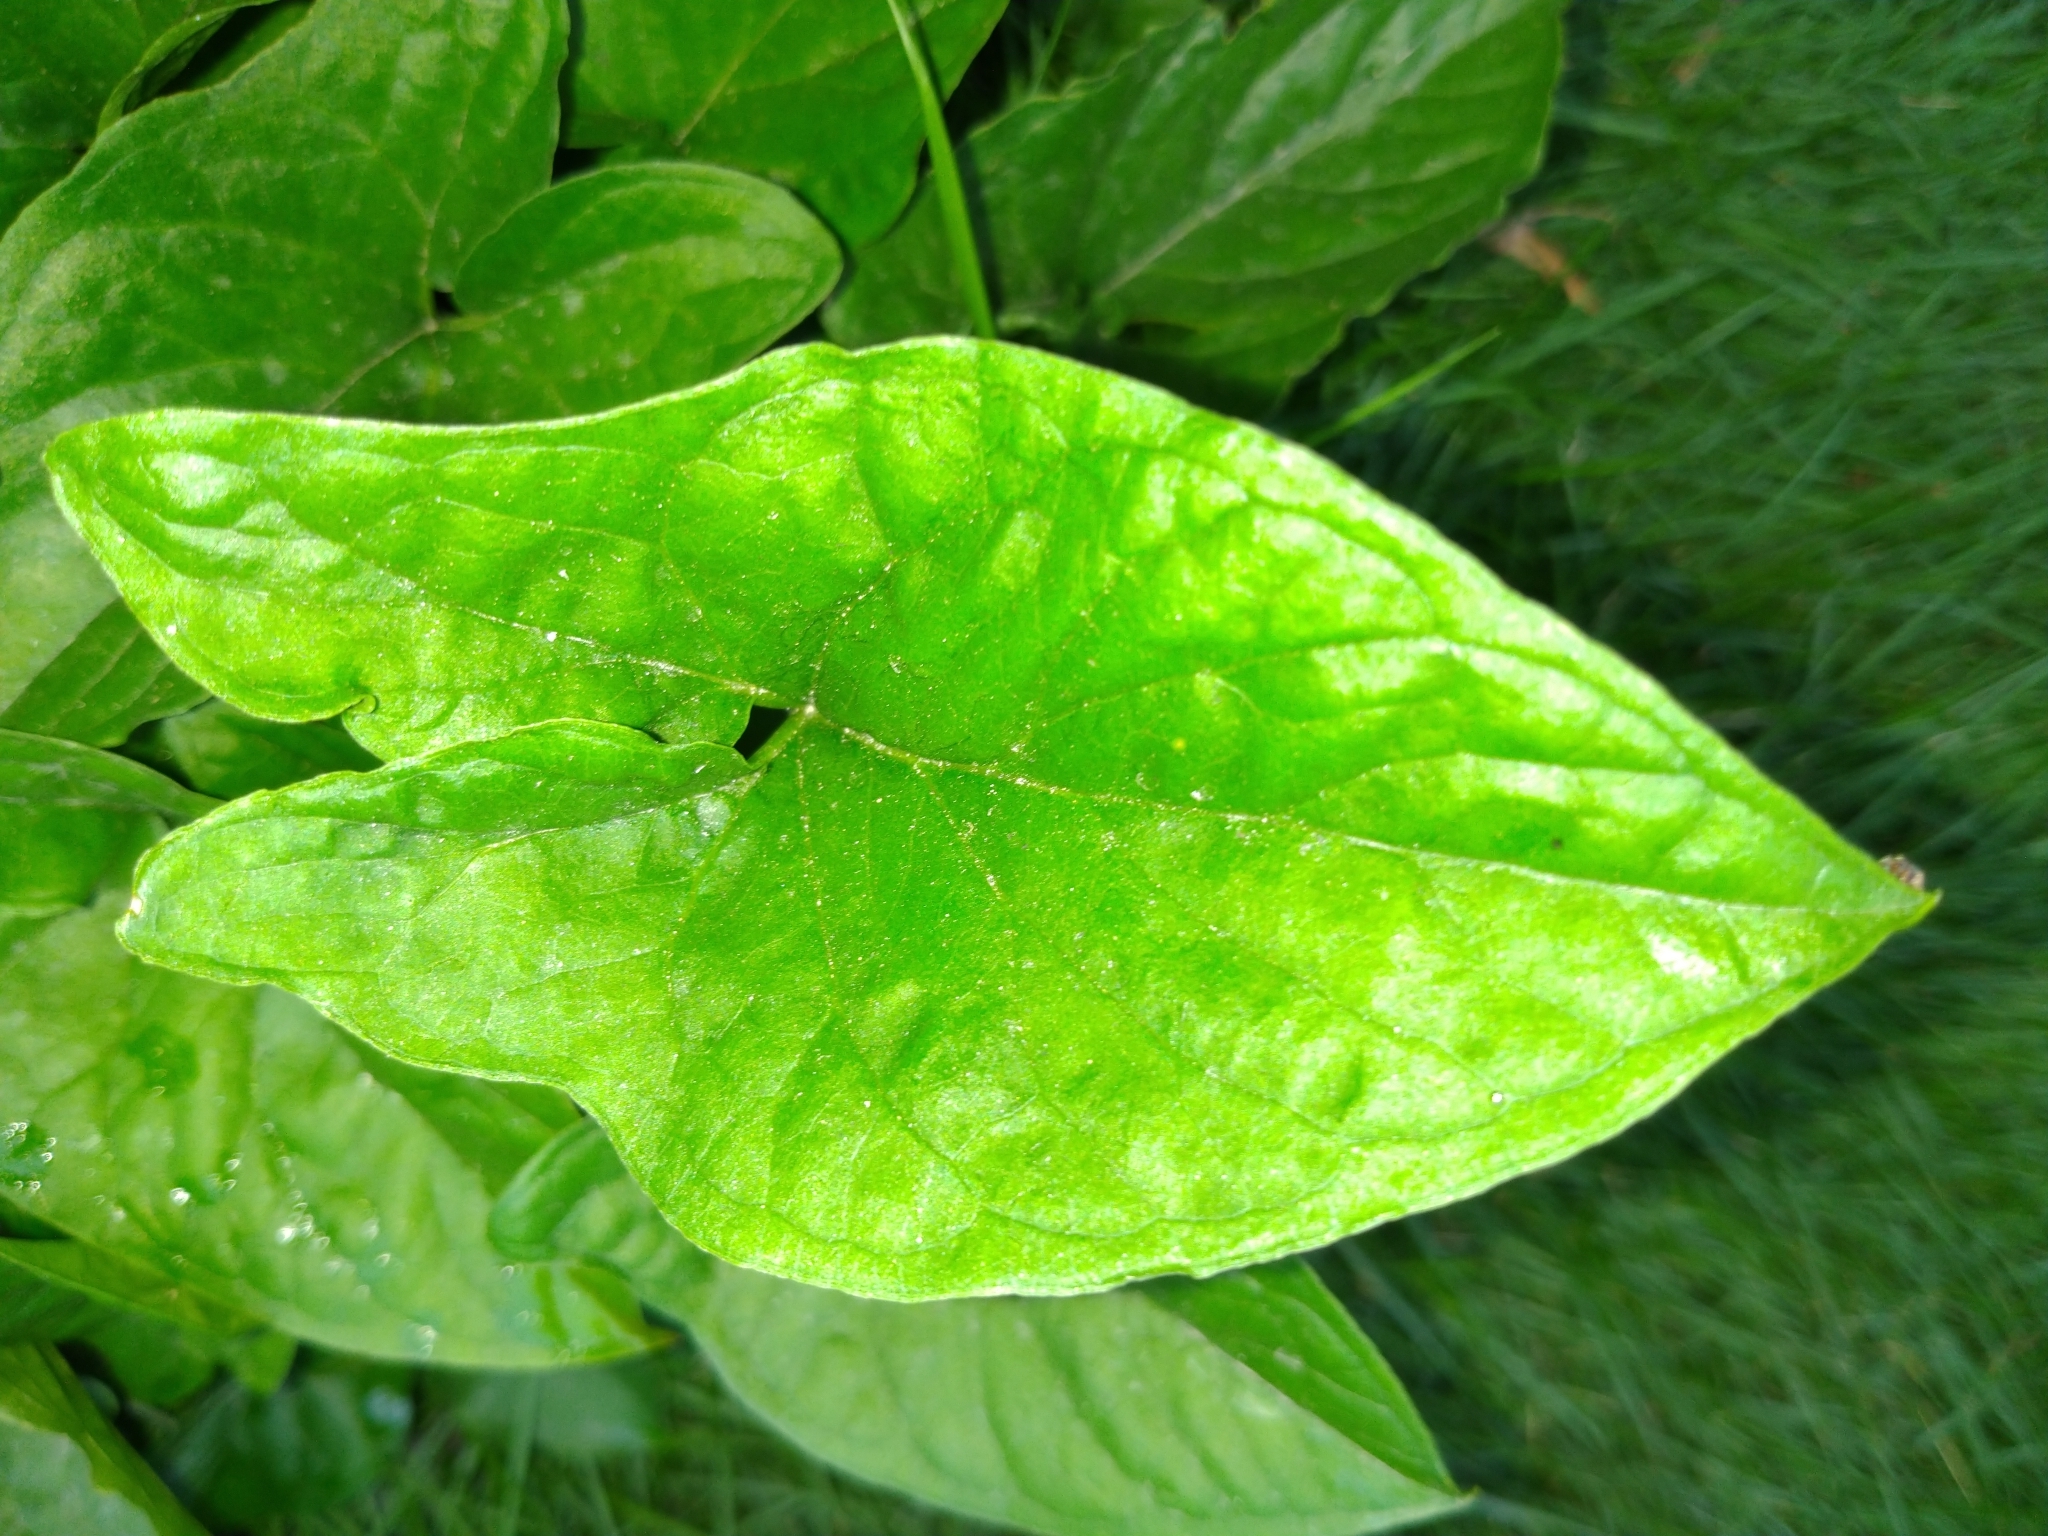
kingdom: Plantae
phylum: Tracheophyta
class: Liliopsida
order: Alismatales
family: Araceae
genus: Typhonium
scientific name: Typhonium blumei
